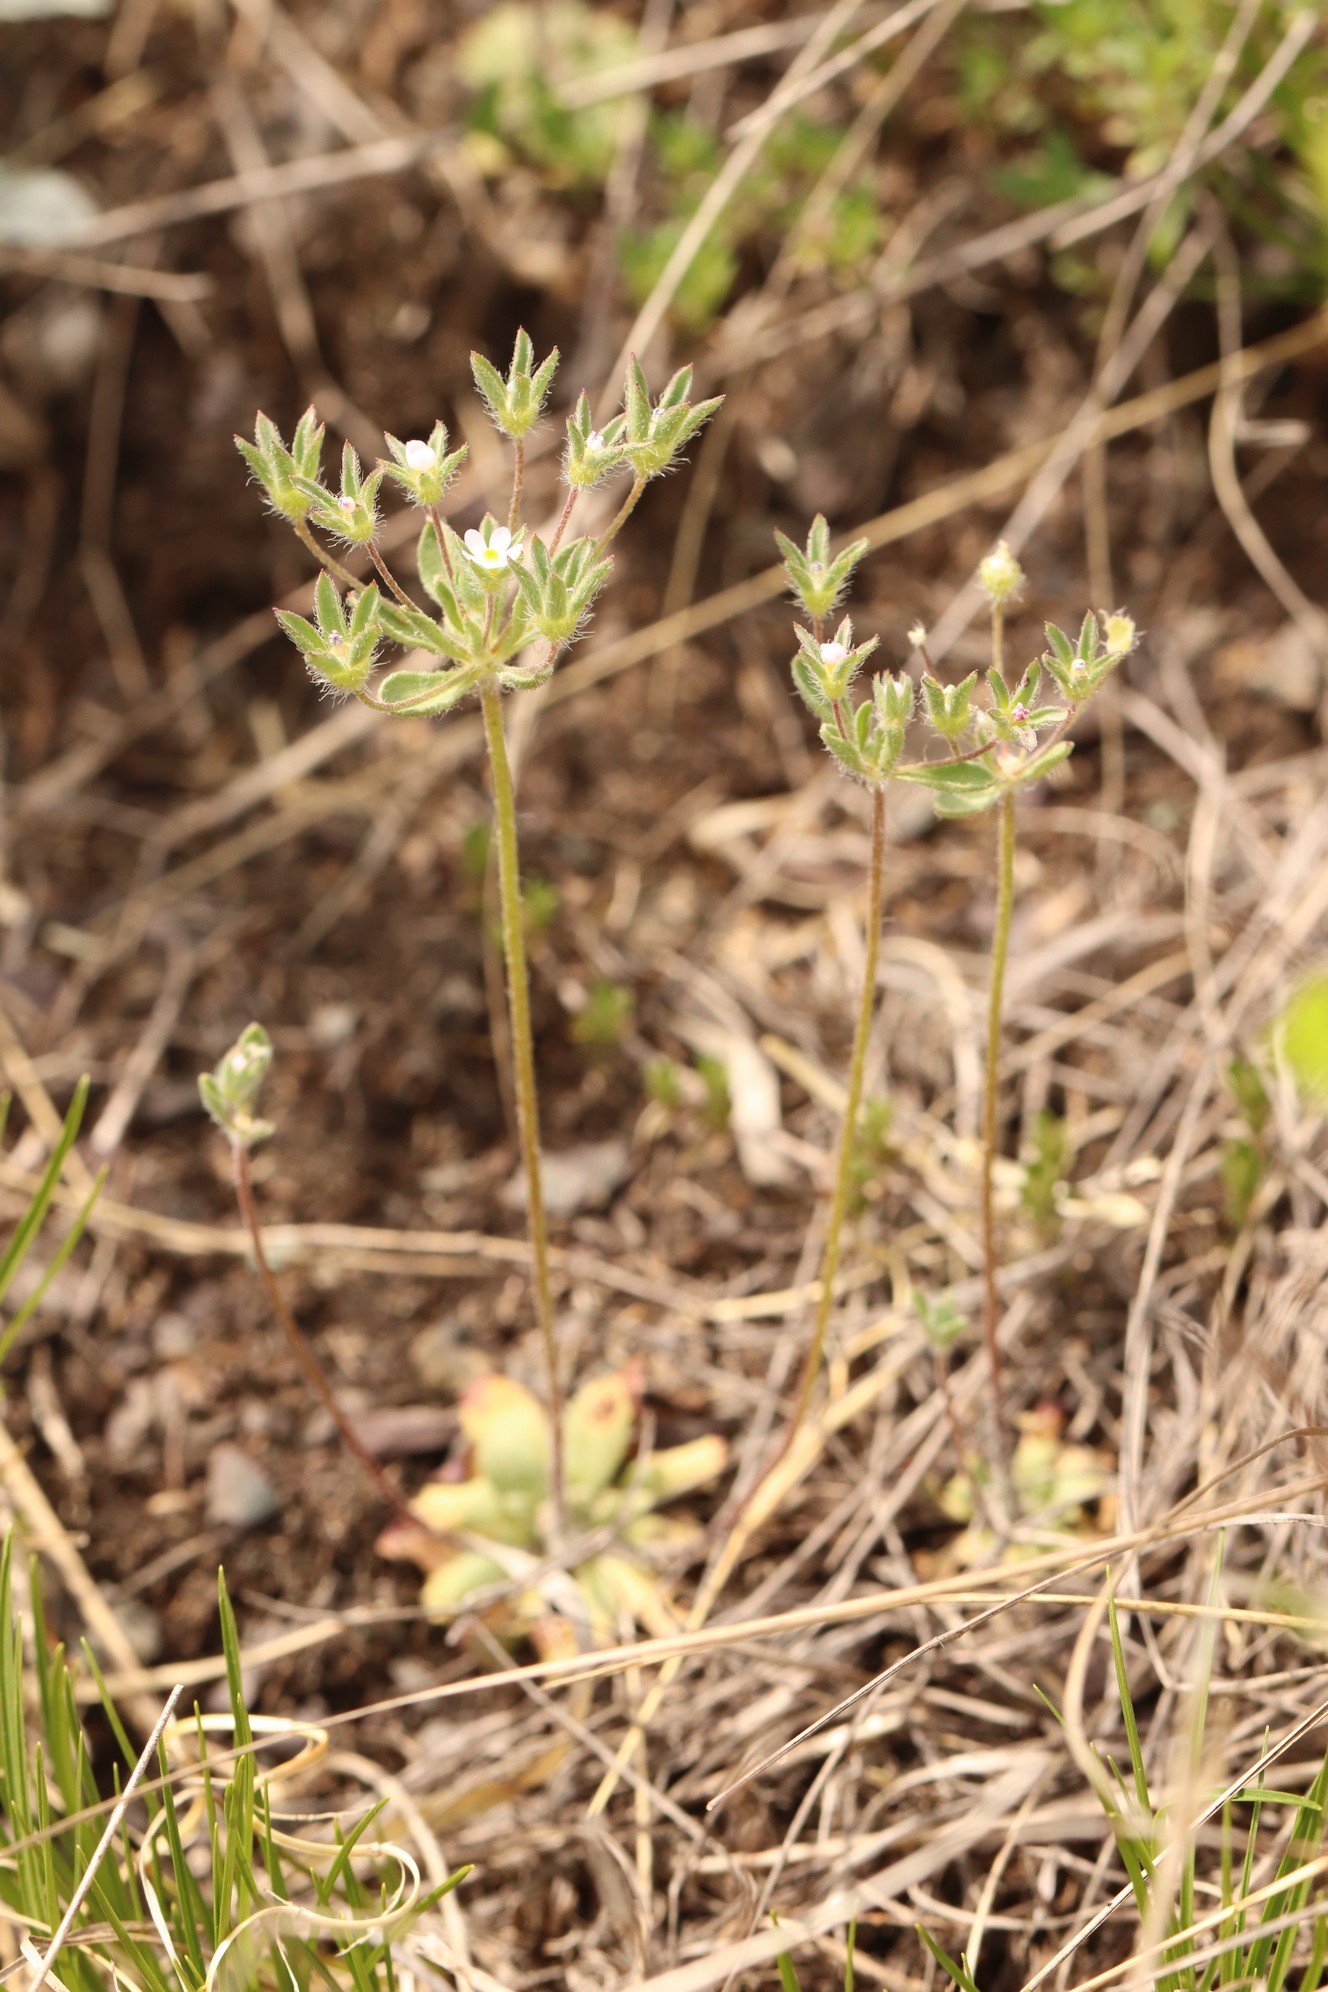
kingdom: Plantae
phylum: Tracheophyta
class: Magnoliopsida
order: Ericales
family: Primulaceae
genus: Androsace
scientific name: Androsace maxima
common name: Annual androsace
